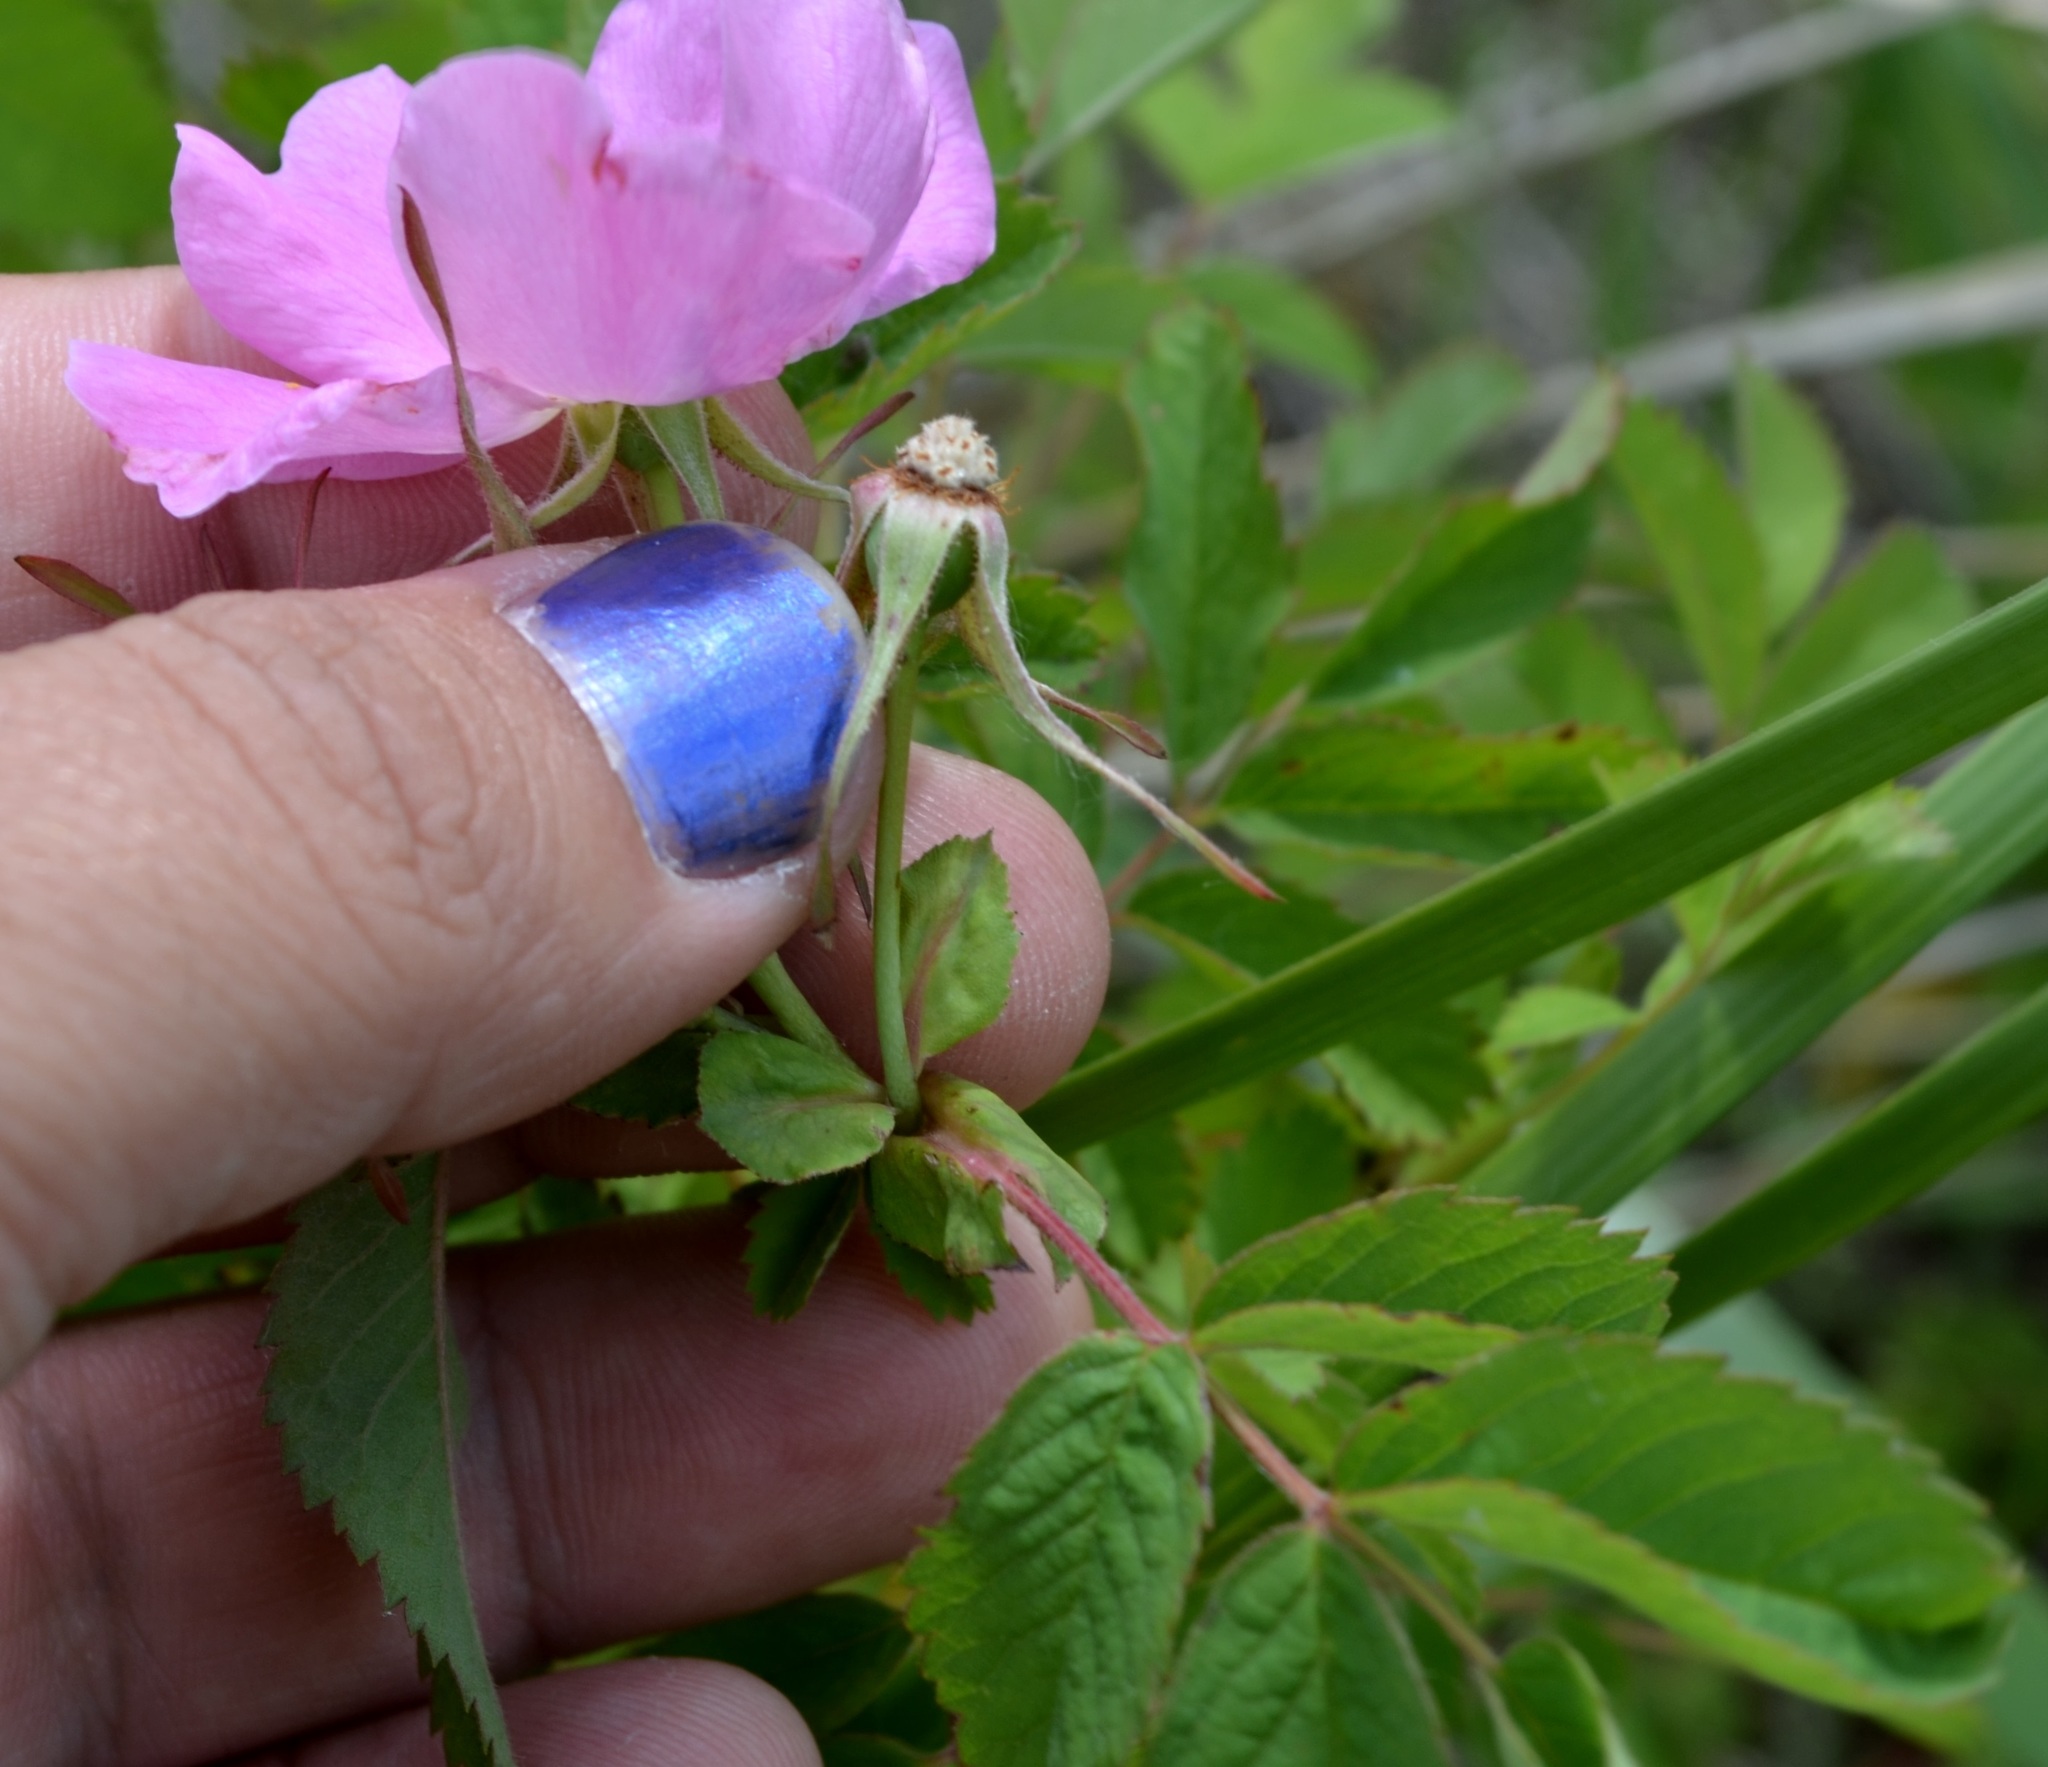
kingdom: Plantae
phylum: Tracheophyta
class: Magnoliopsida
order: Rosales
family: Rosaceae
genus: Rosa
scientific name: Rosa carolina
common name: Pasture rose
